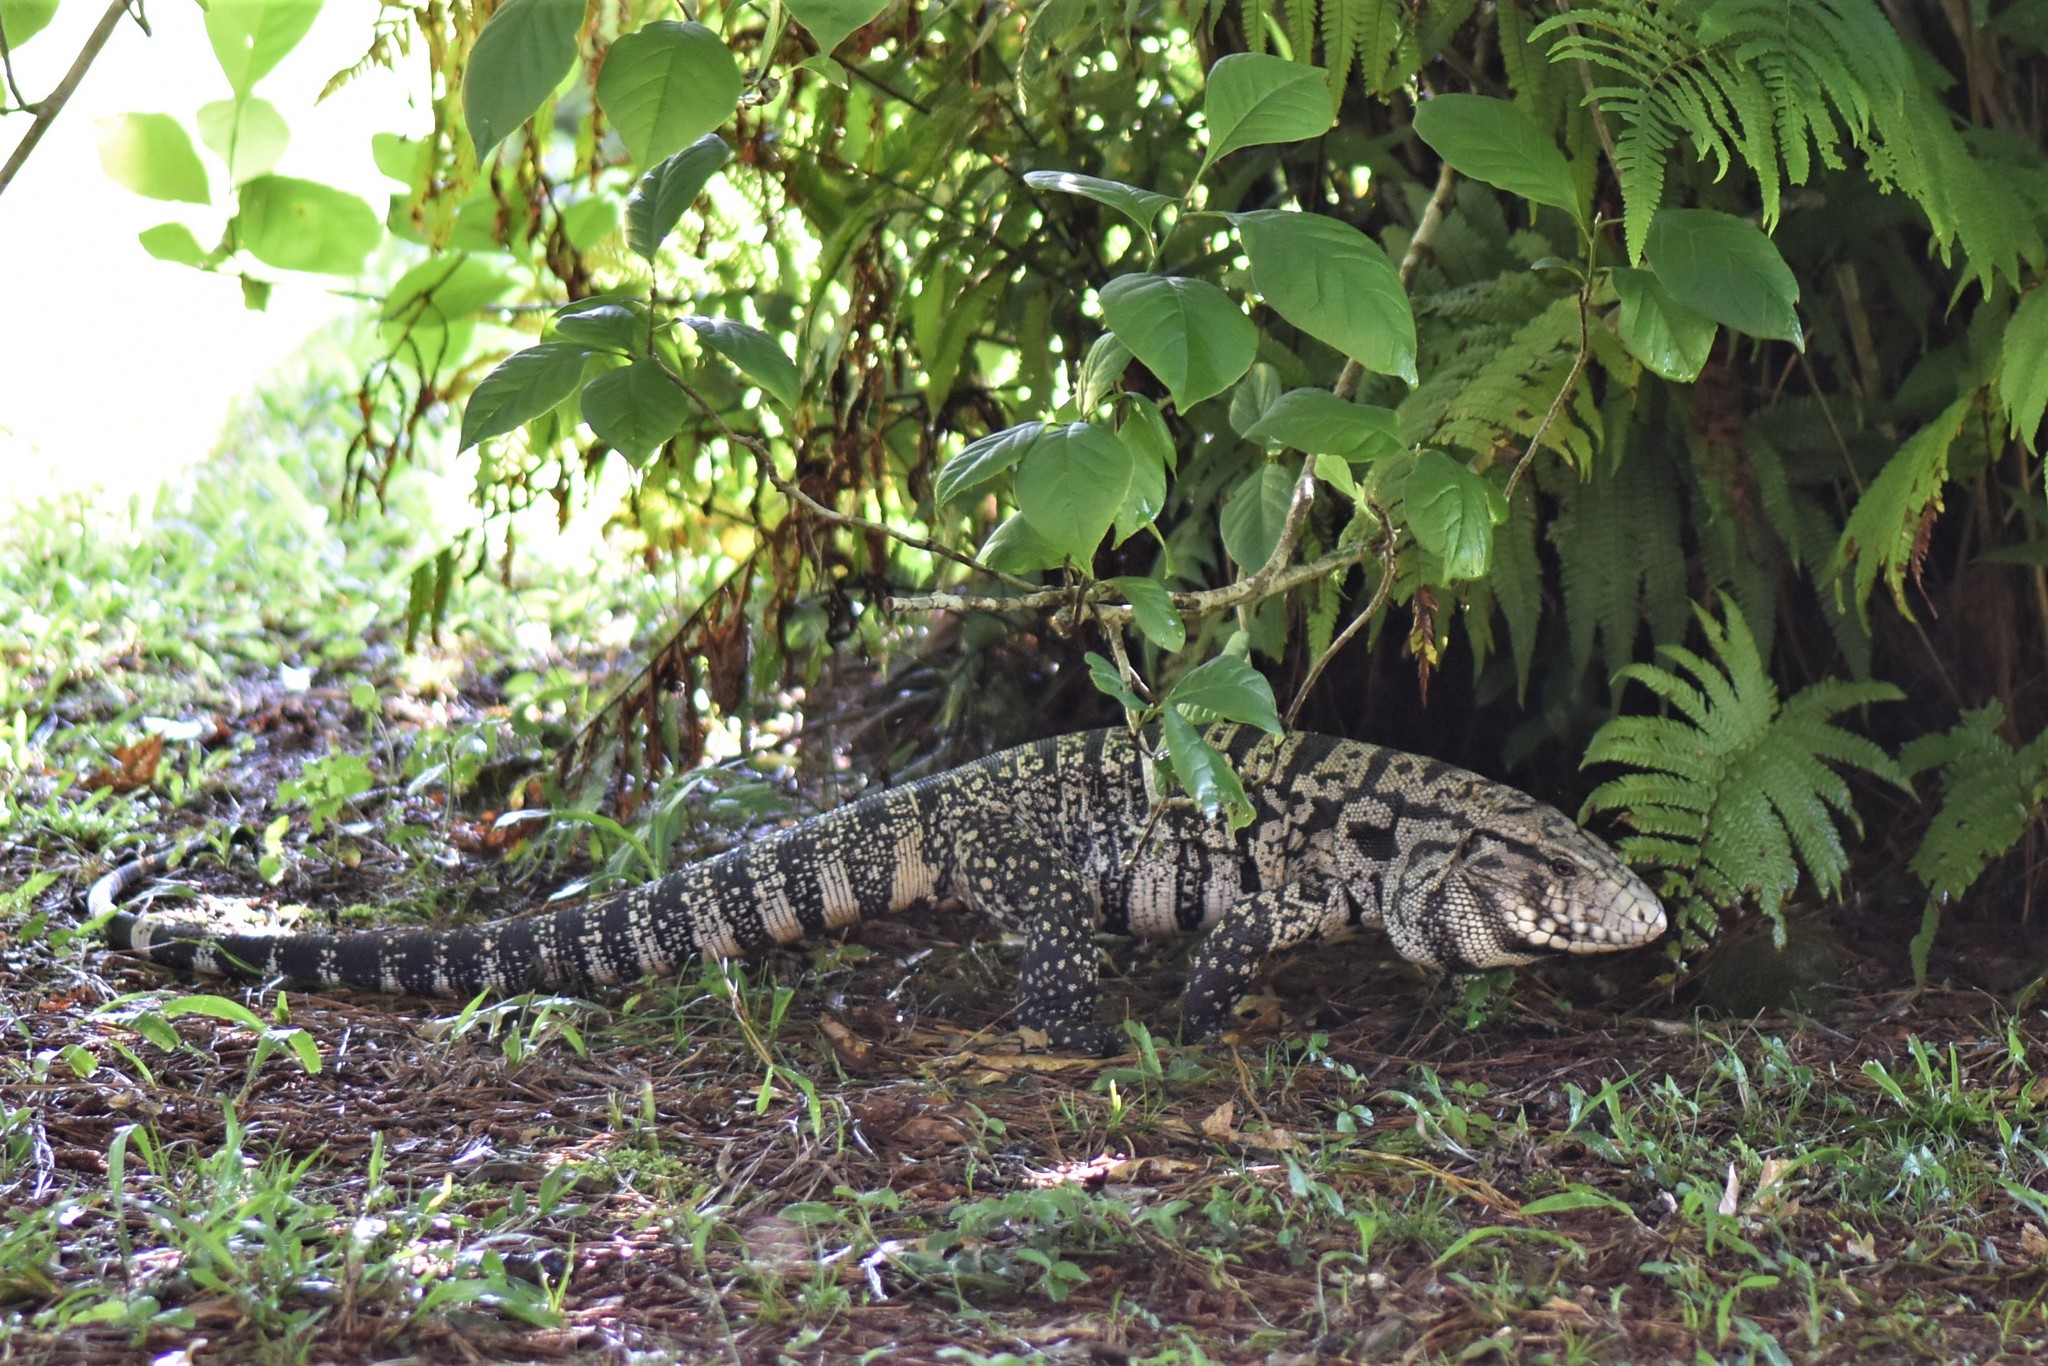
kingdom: Animalia
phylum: Chordata
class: Squamata
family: Teiidae
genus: Salvator
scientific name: Salvator merianae
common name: Argentine black and white tegu
